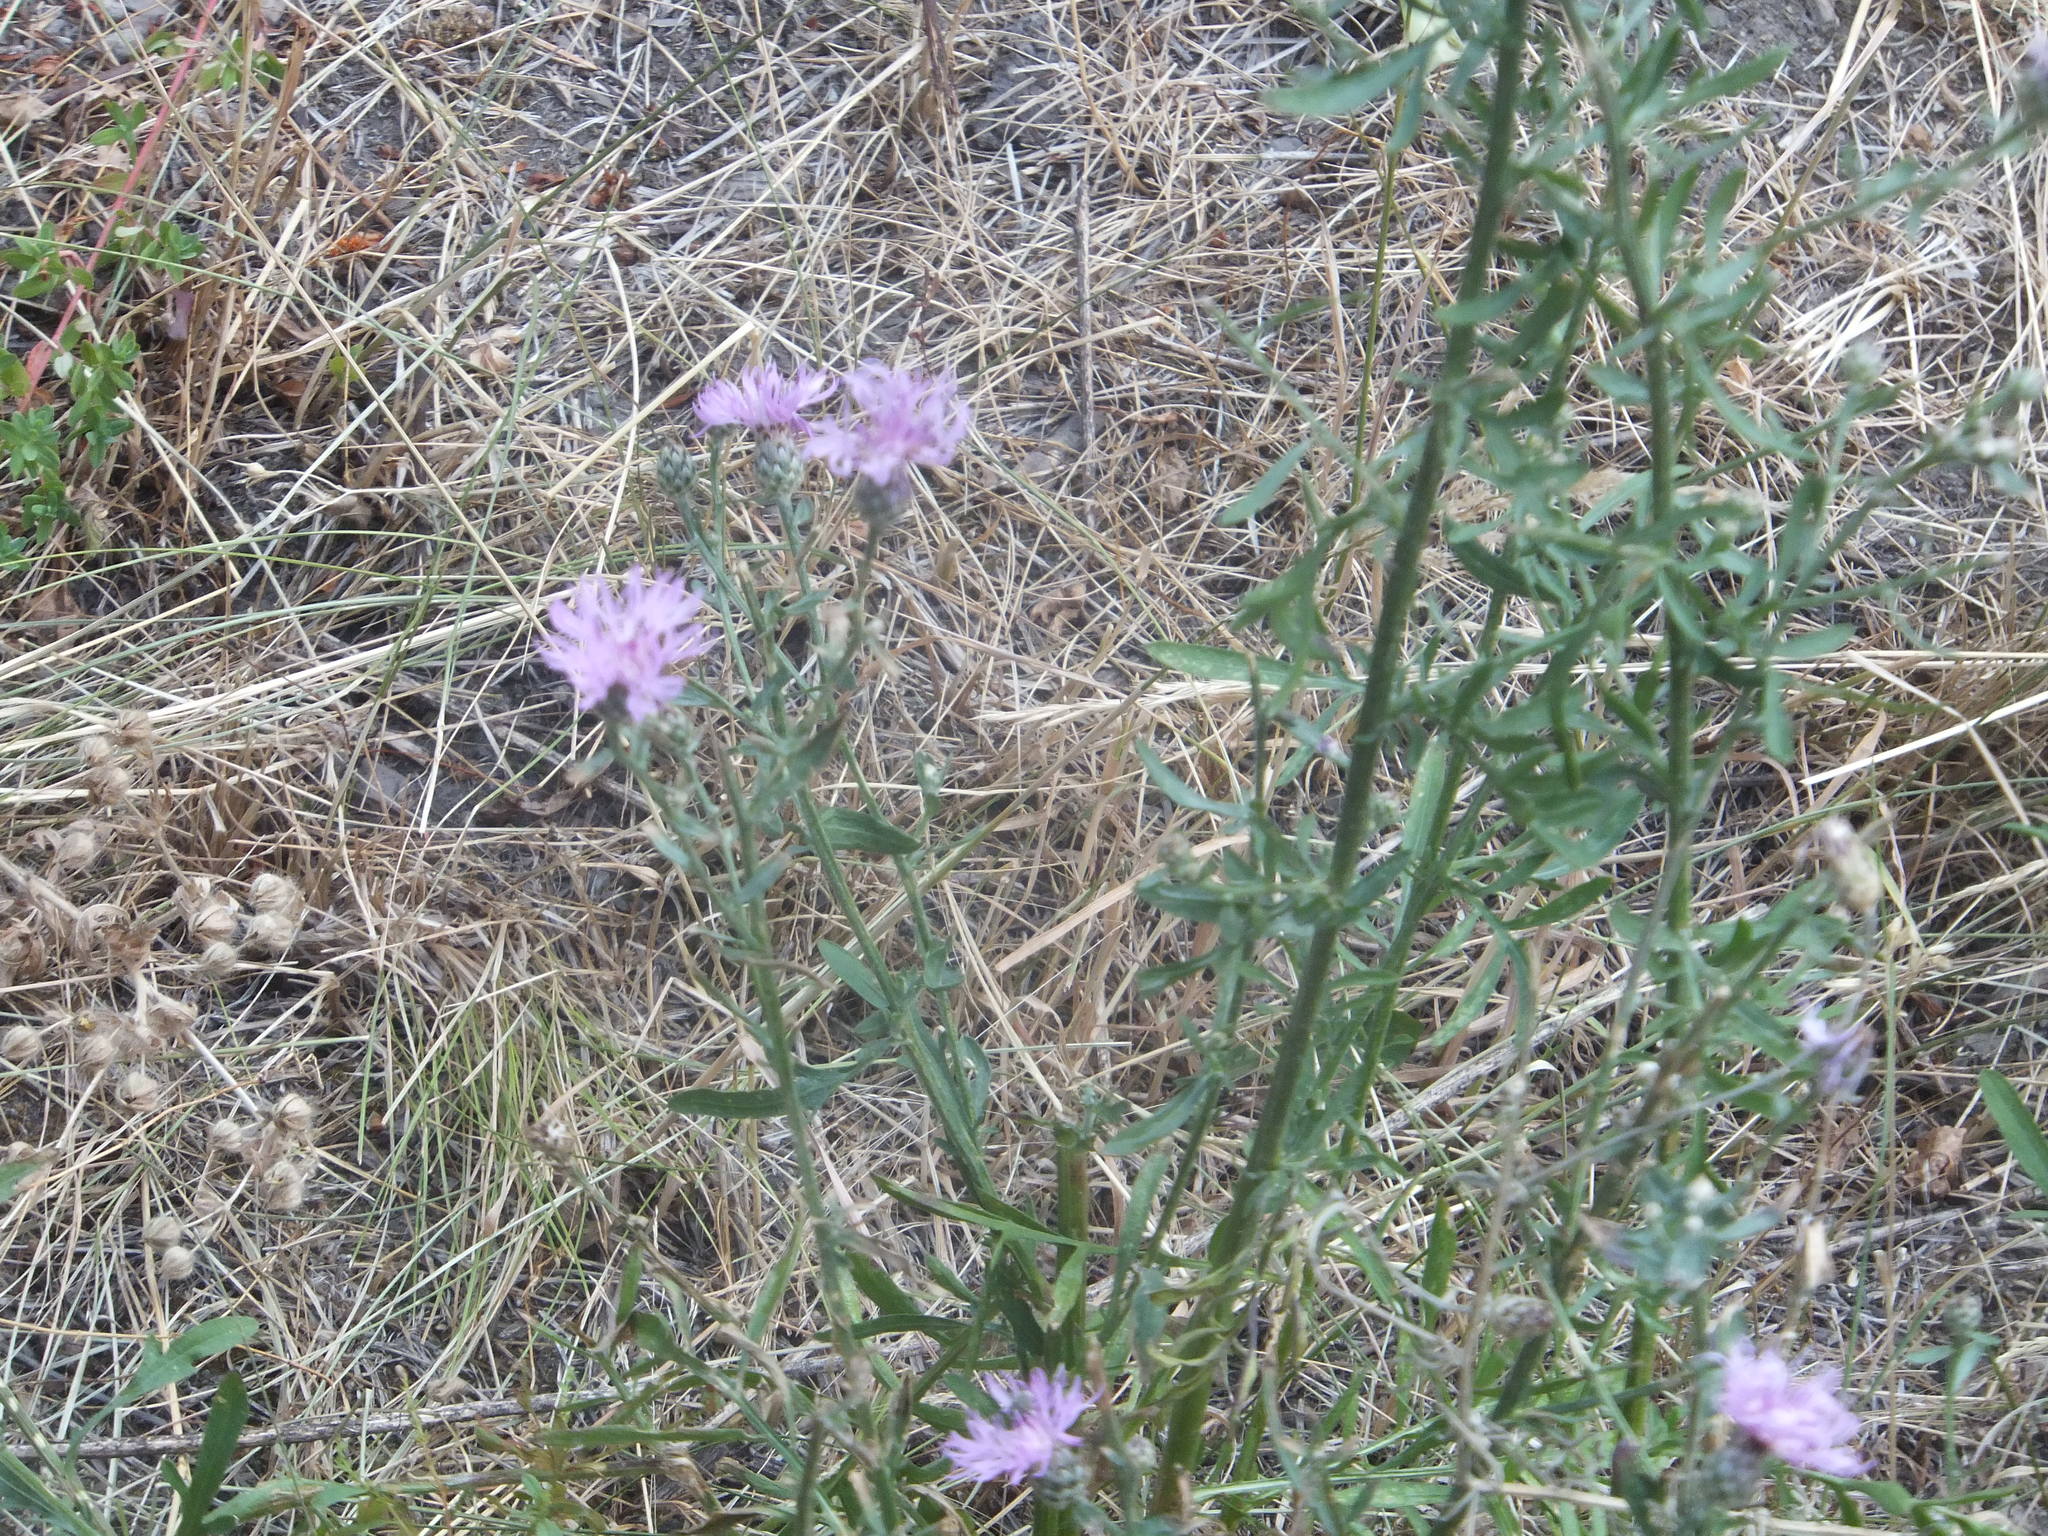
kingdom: Plantae
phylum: Tracheophyta
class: Magnoliopsida
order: Asterales
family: Asteraceae
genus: Centaurea
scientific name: Centaurea stoebe
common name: Spotted knapweed
